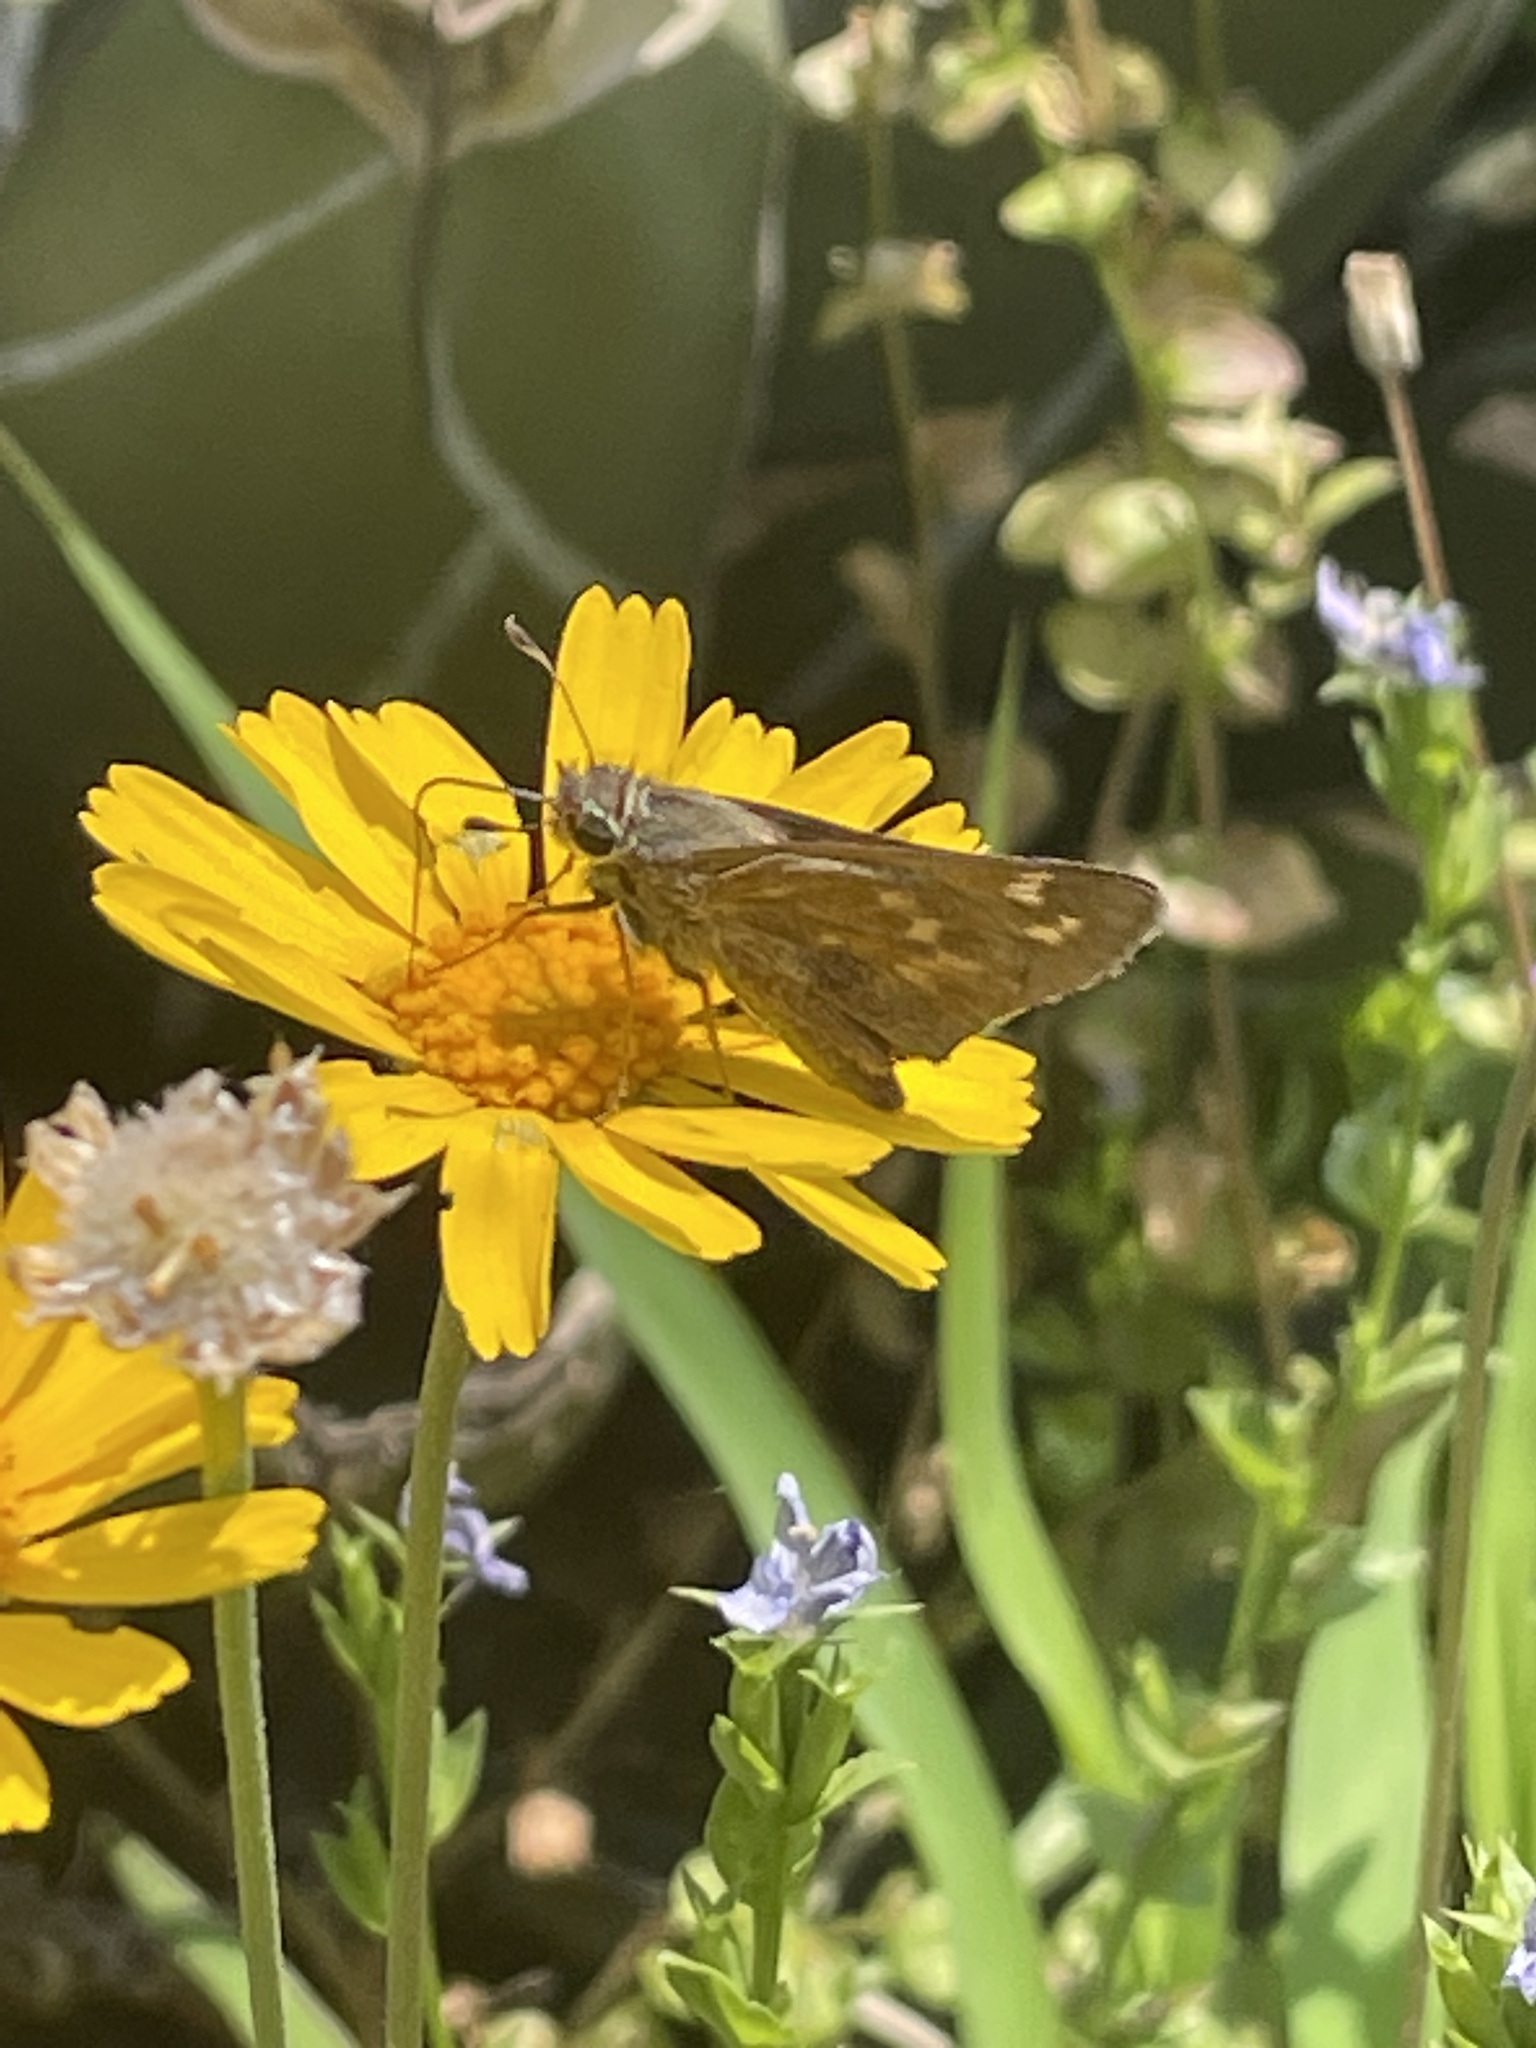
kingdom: Animalia
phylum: Arthropoda
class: Insecta
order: Lepidoptera
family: Hesperiidae
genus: Atalopedes
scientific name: Atalopedes
